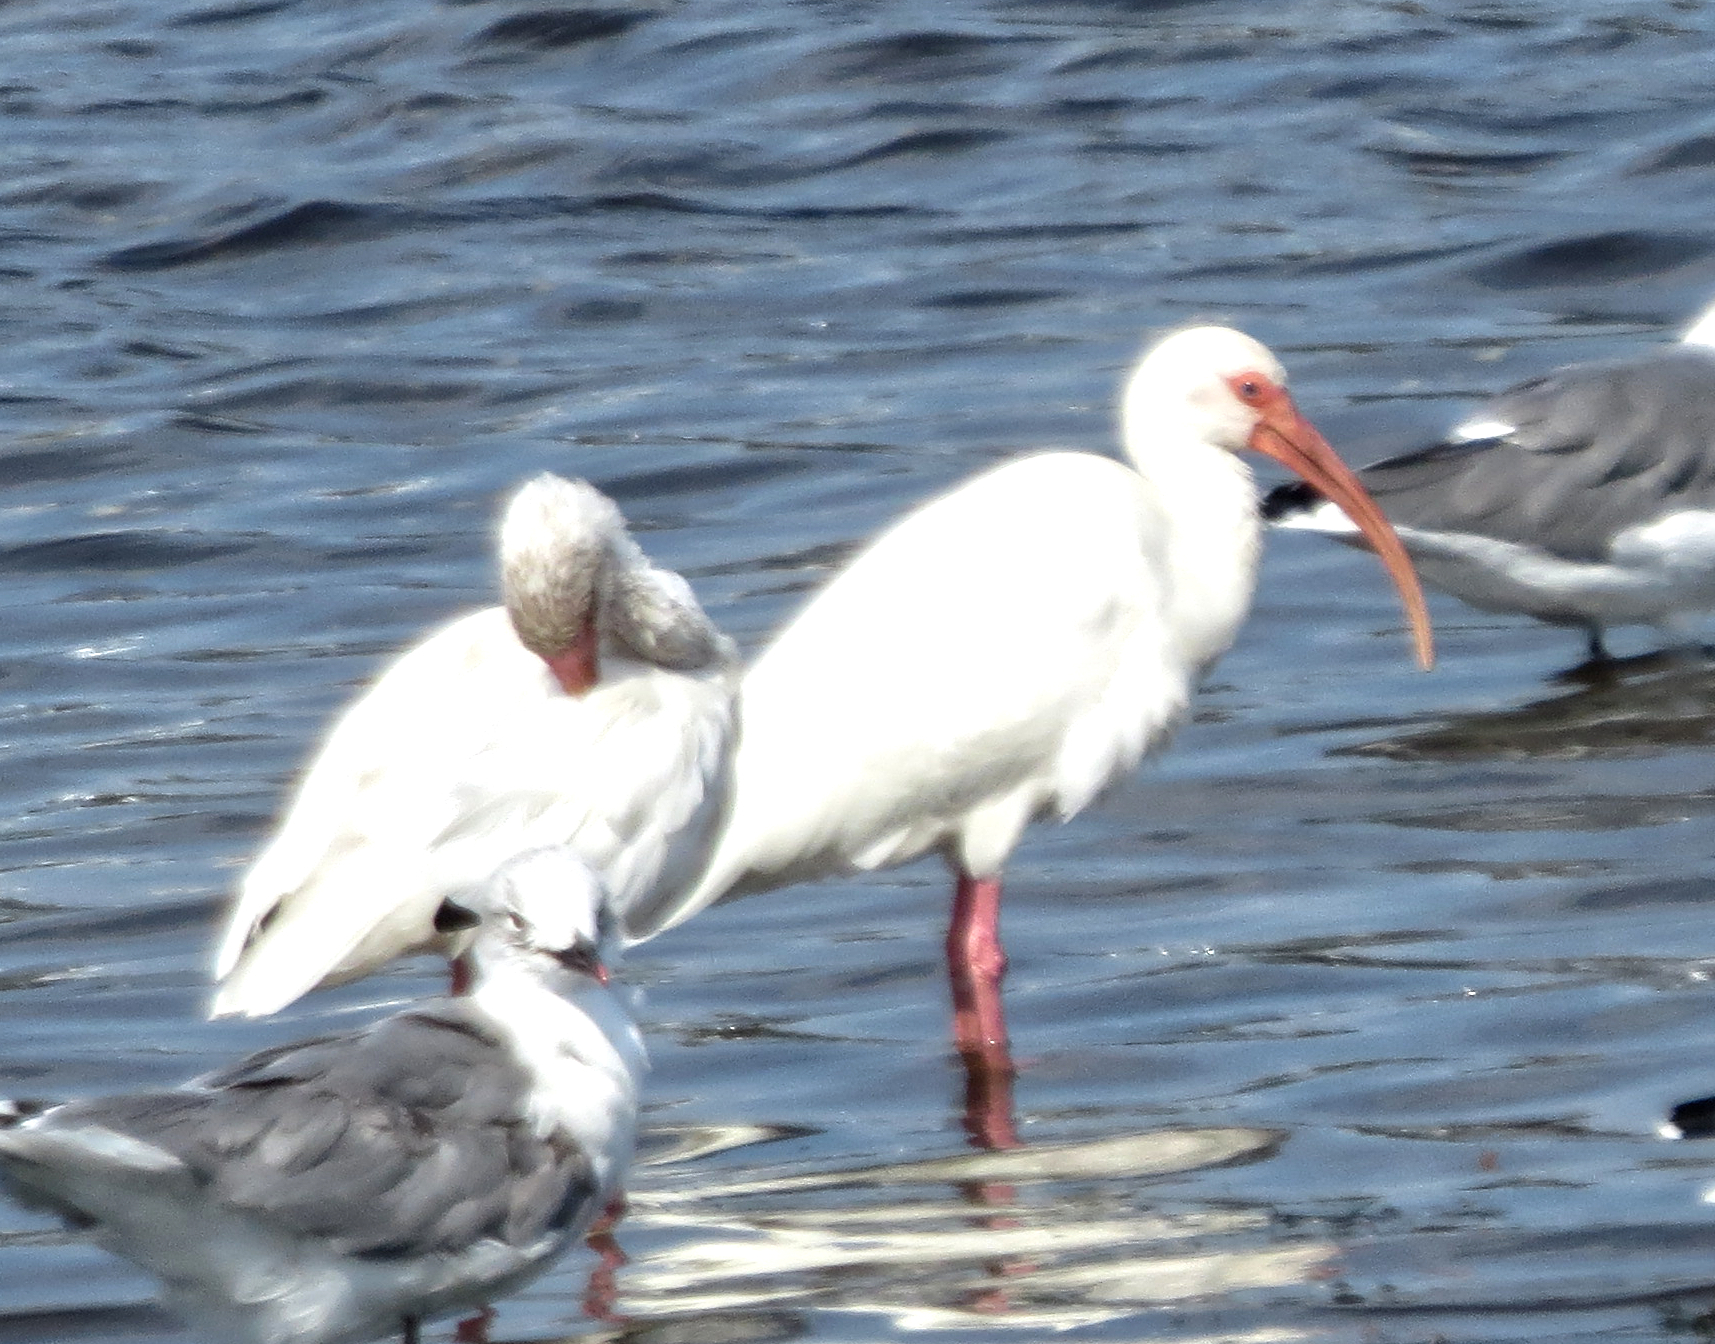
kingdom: Animalia
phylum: Chordata
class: Aves
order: Pelecaniformes
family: Threskiornithidae
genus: Eudocimus
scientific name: Eudocimus albus
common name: White ibis
